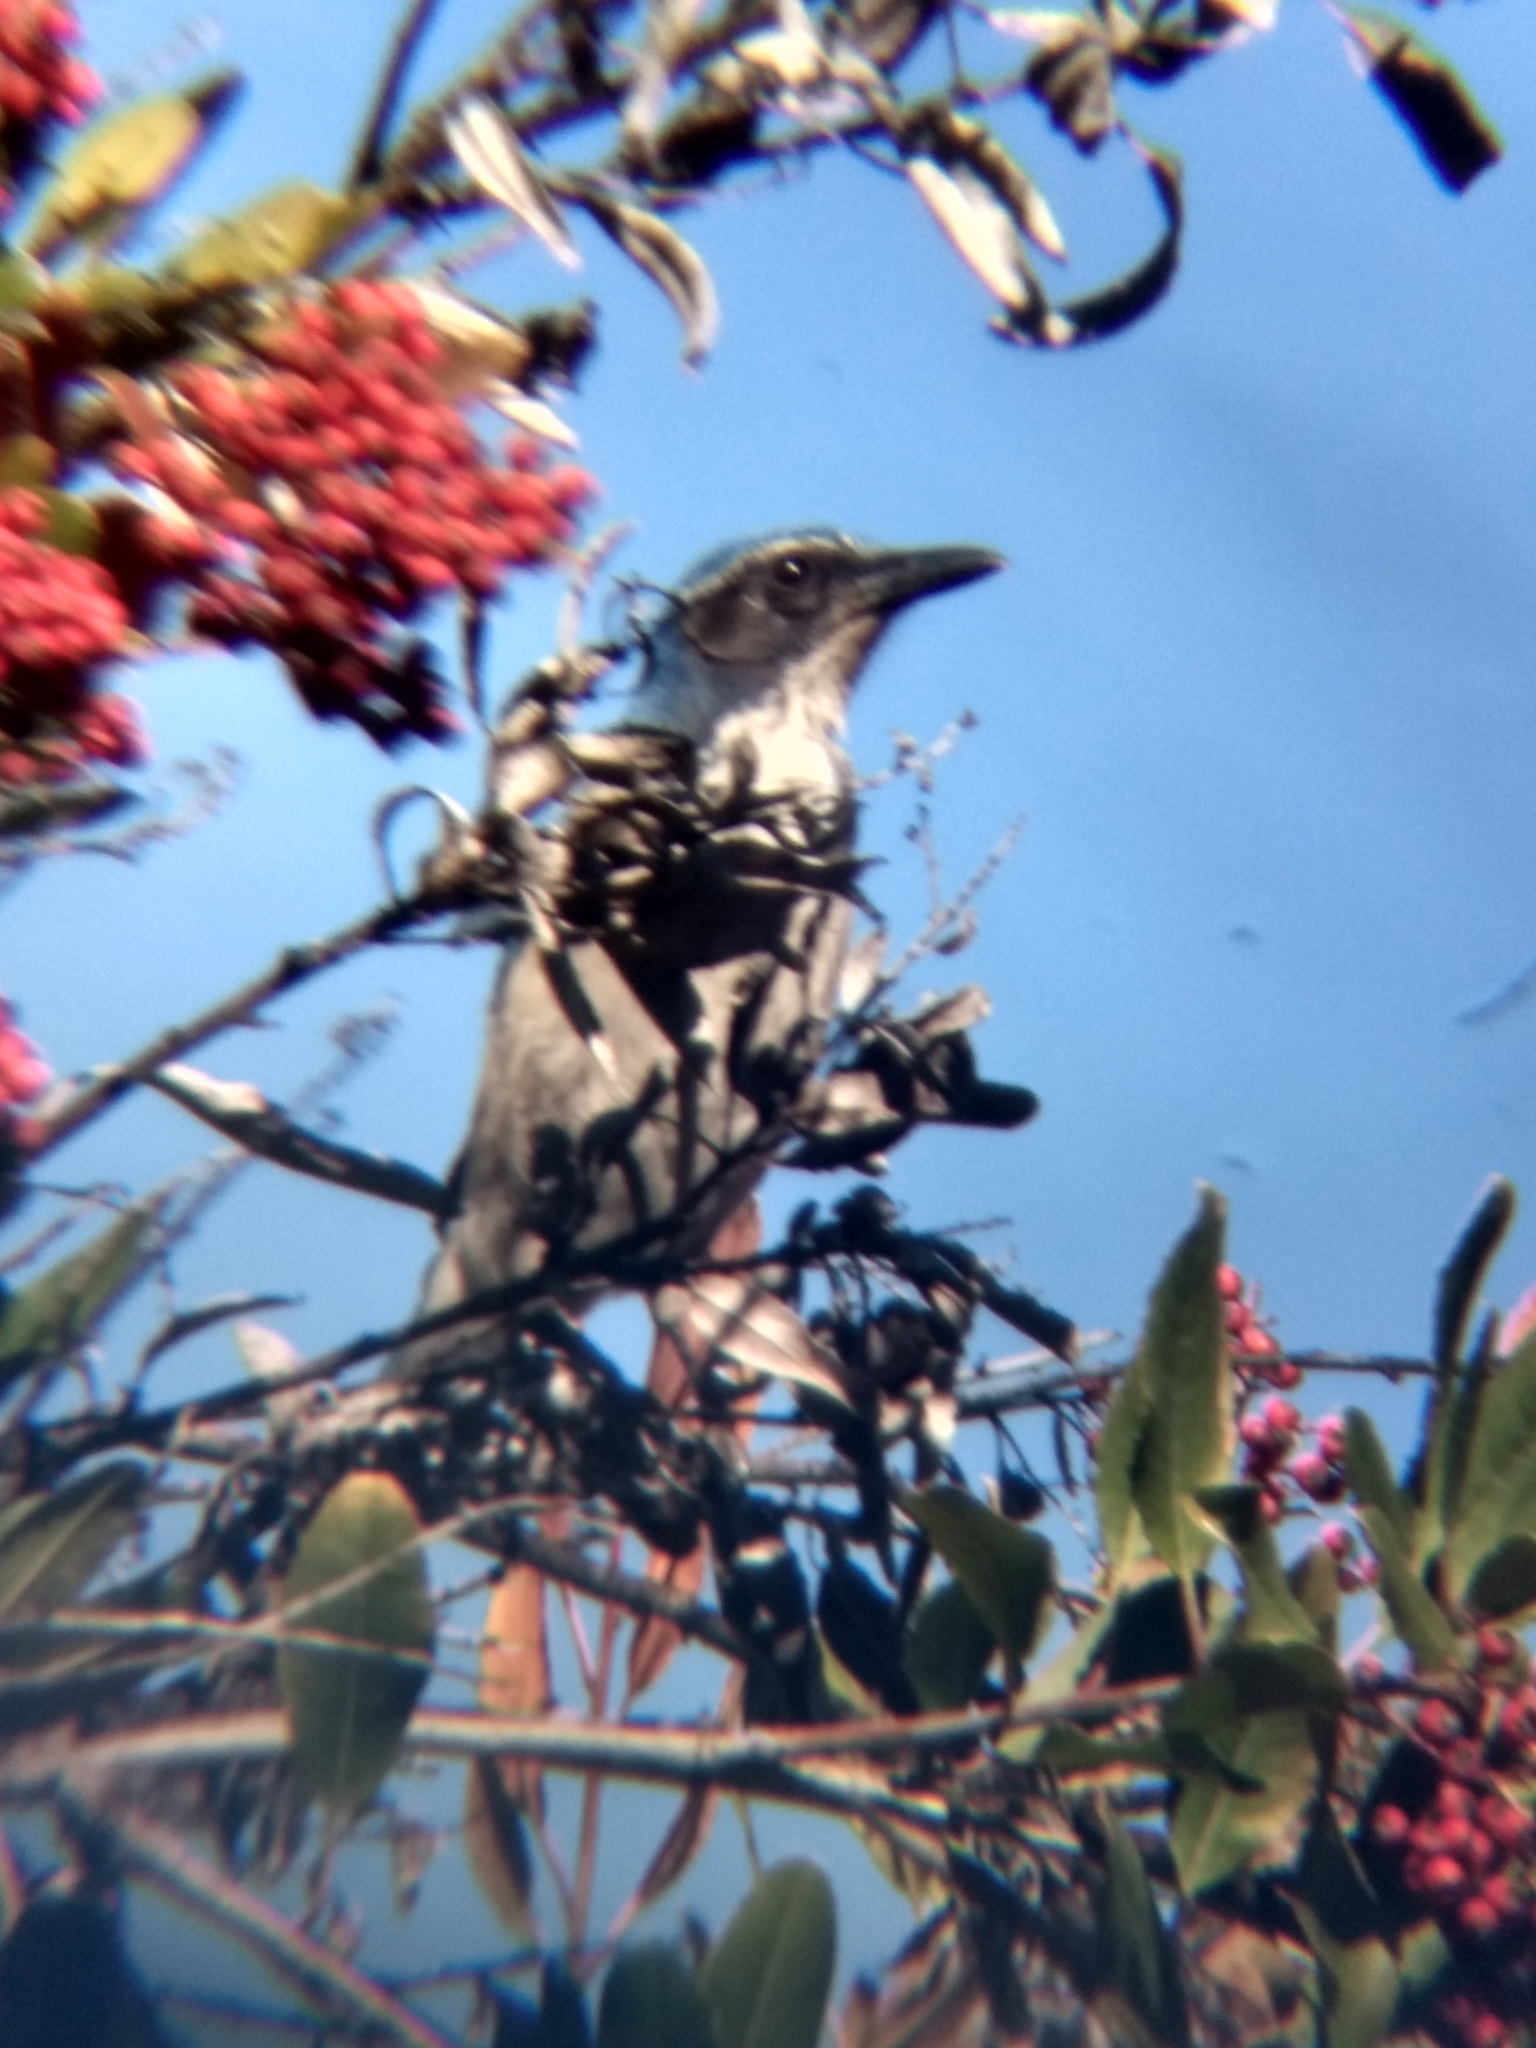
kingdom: Animalia
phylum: Chordata
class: Aves
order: Passeriformes
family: Corvidae
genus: Aphelocoma
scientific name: Aphelocoma californica
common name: California scrub-jay
